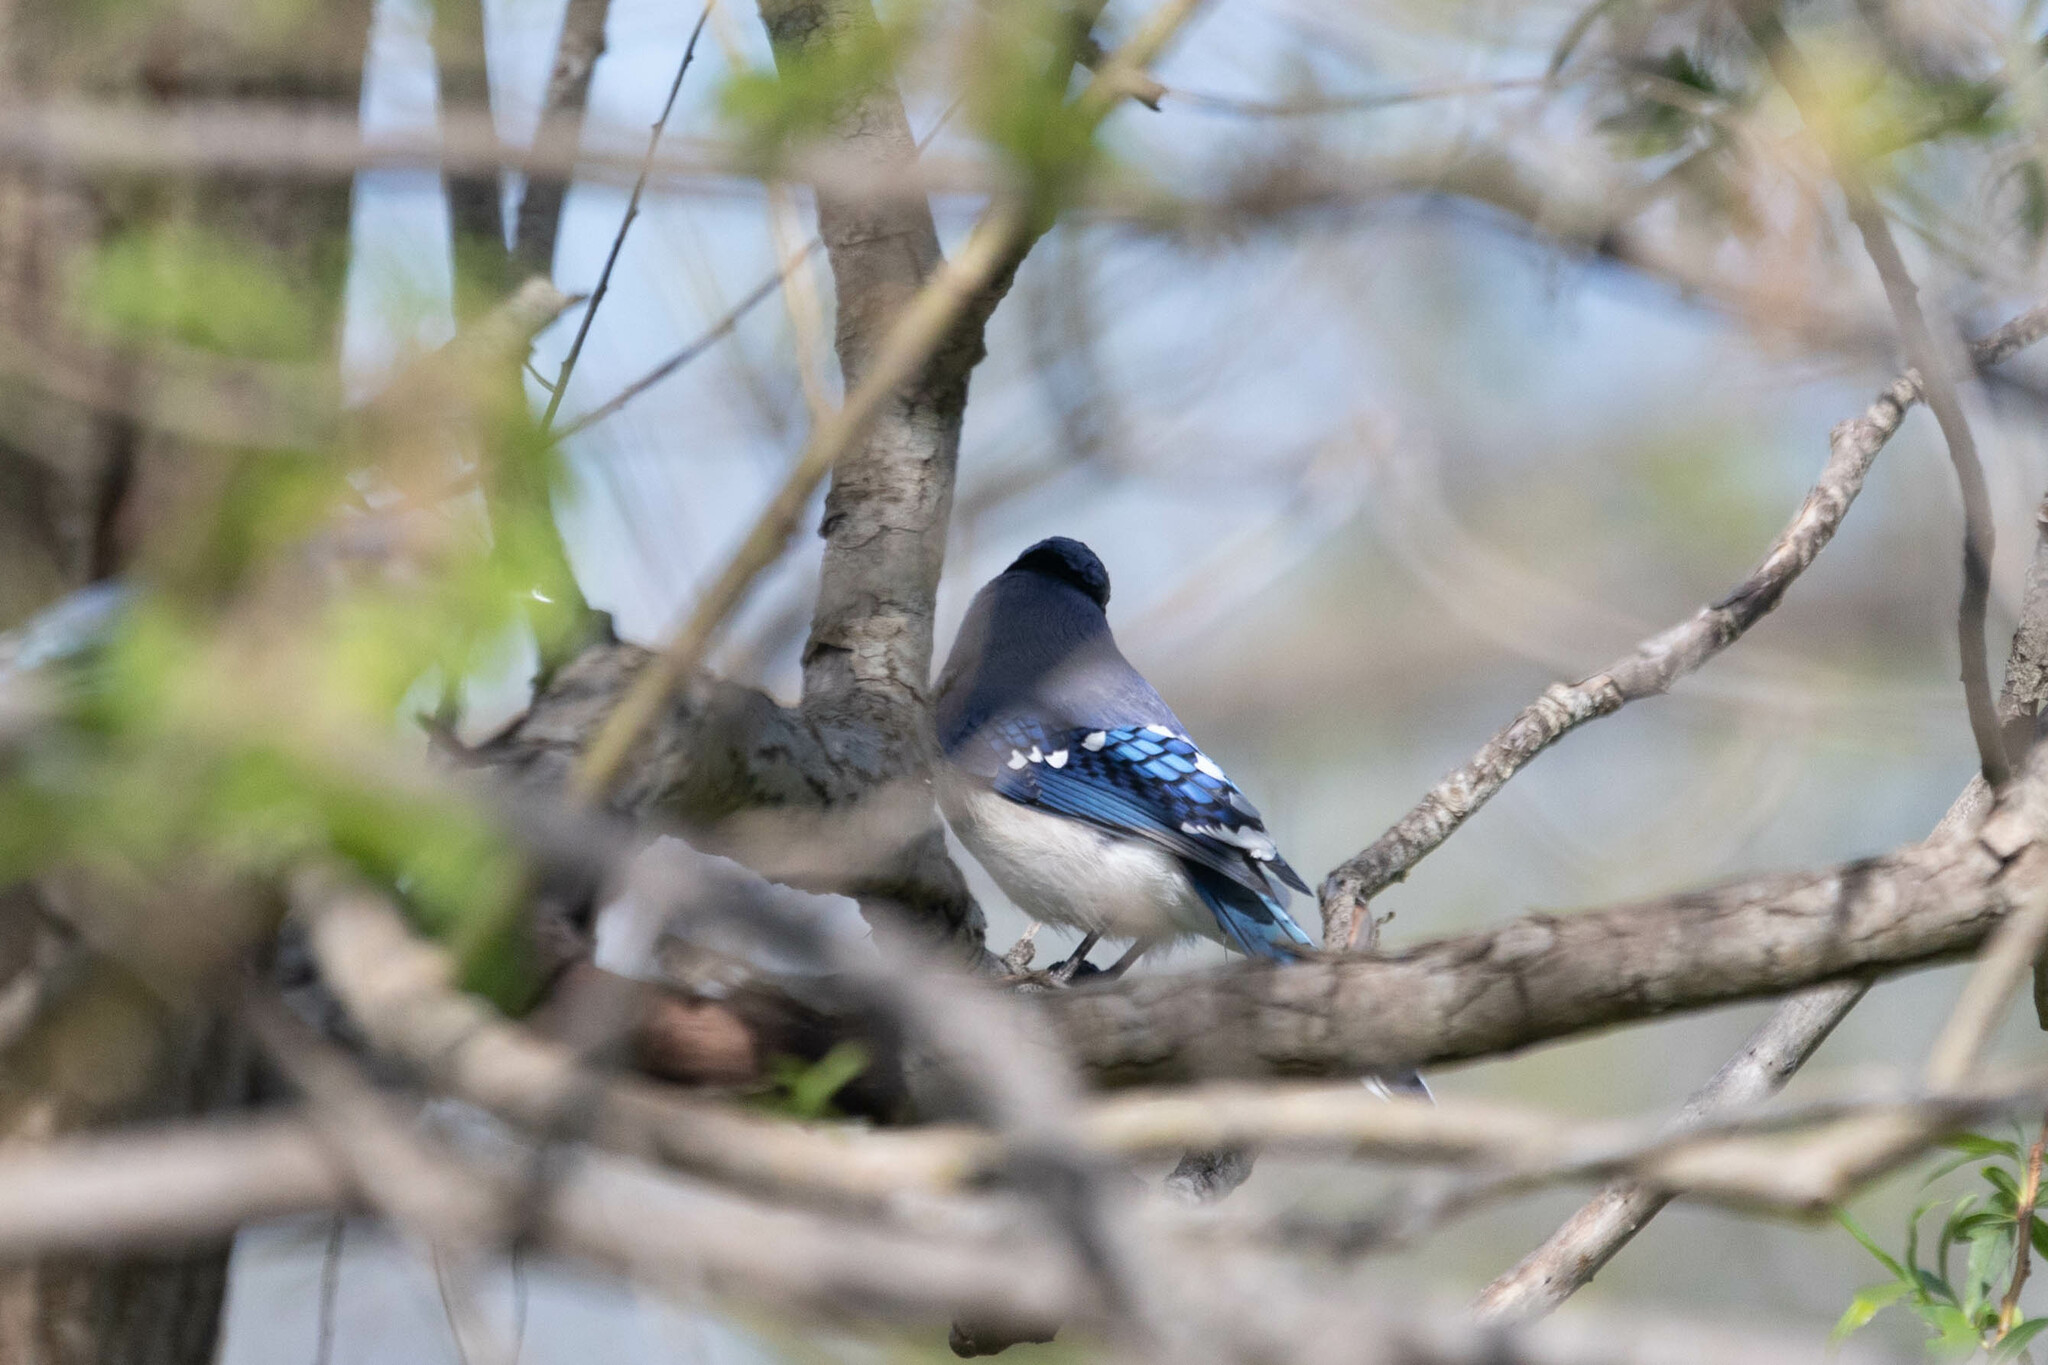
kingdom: Animalia
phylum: Chordata
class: Aves
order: Passeriformes
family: Corvidae
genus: Cyanocitta
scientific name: Cyanocitta cristata
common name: Blue jay
